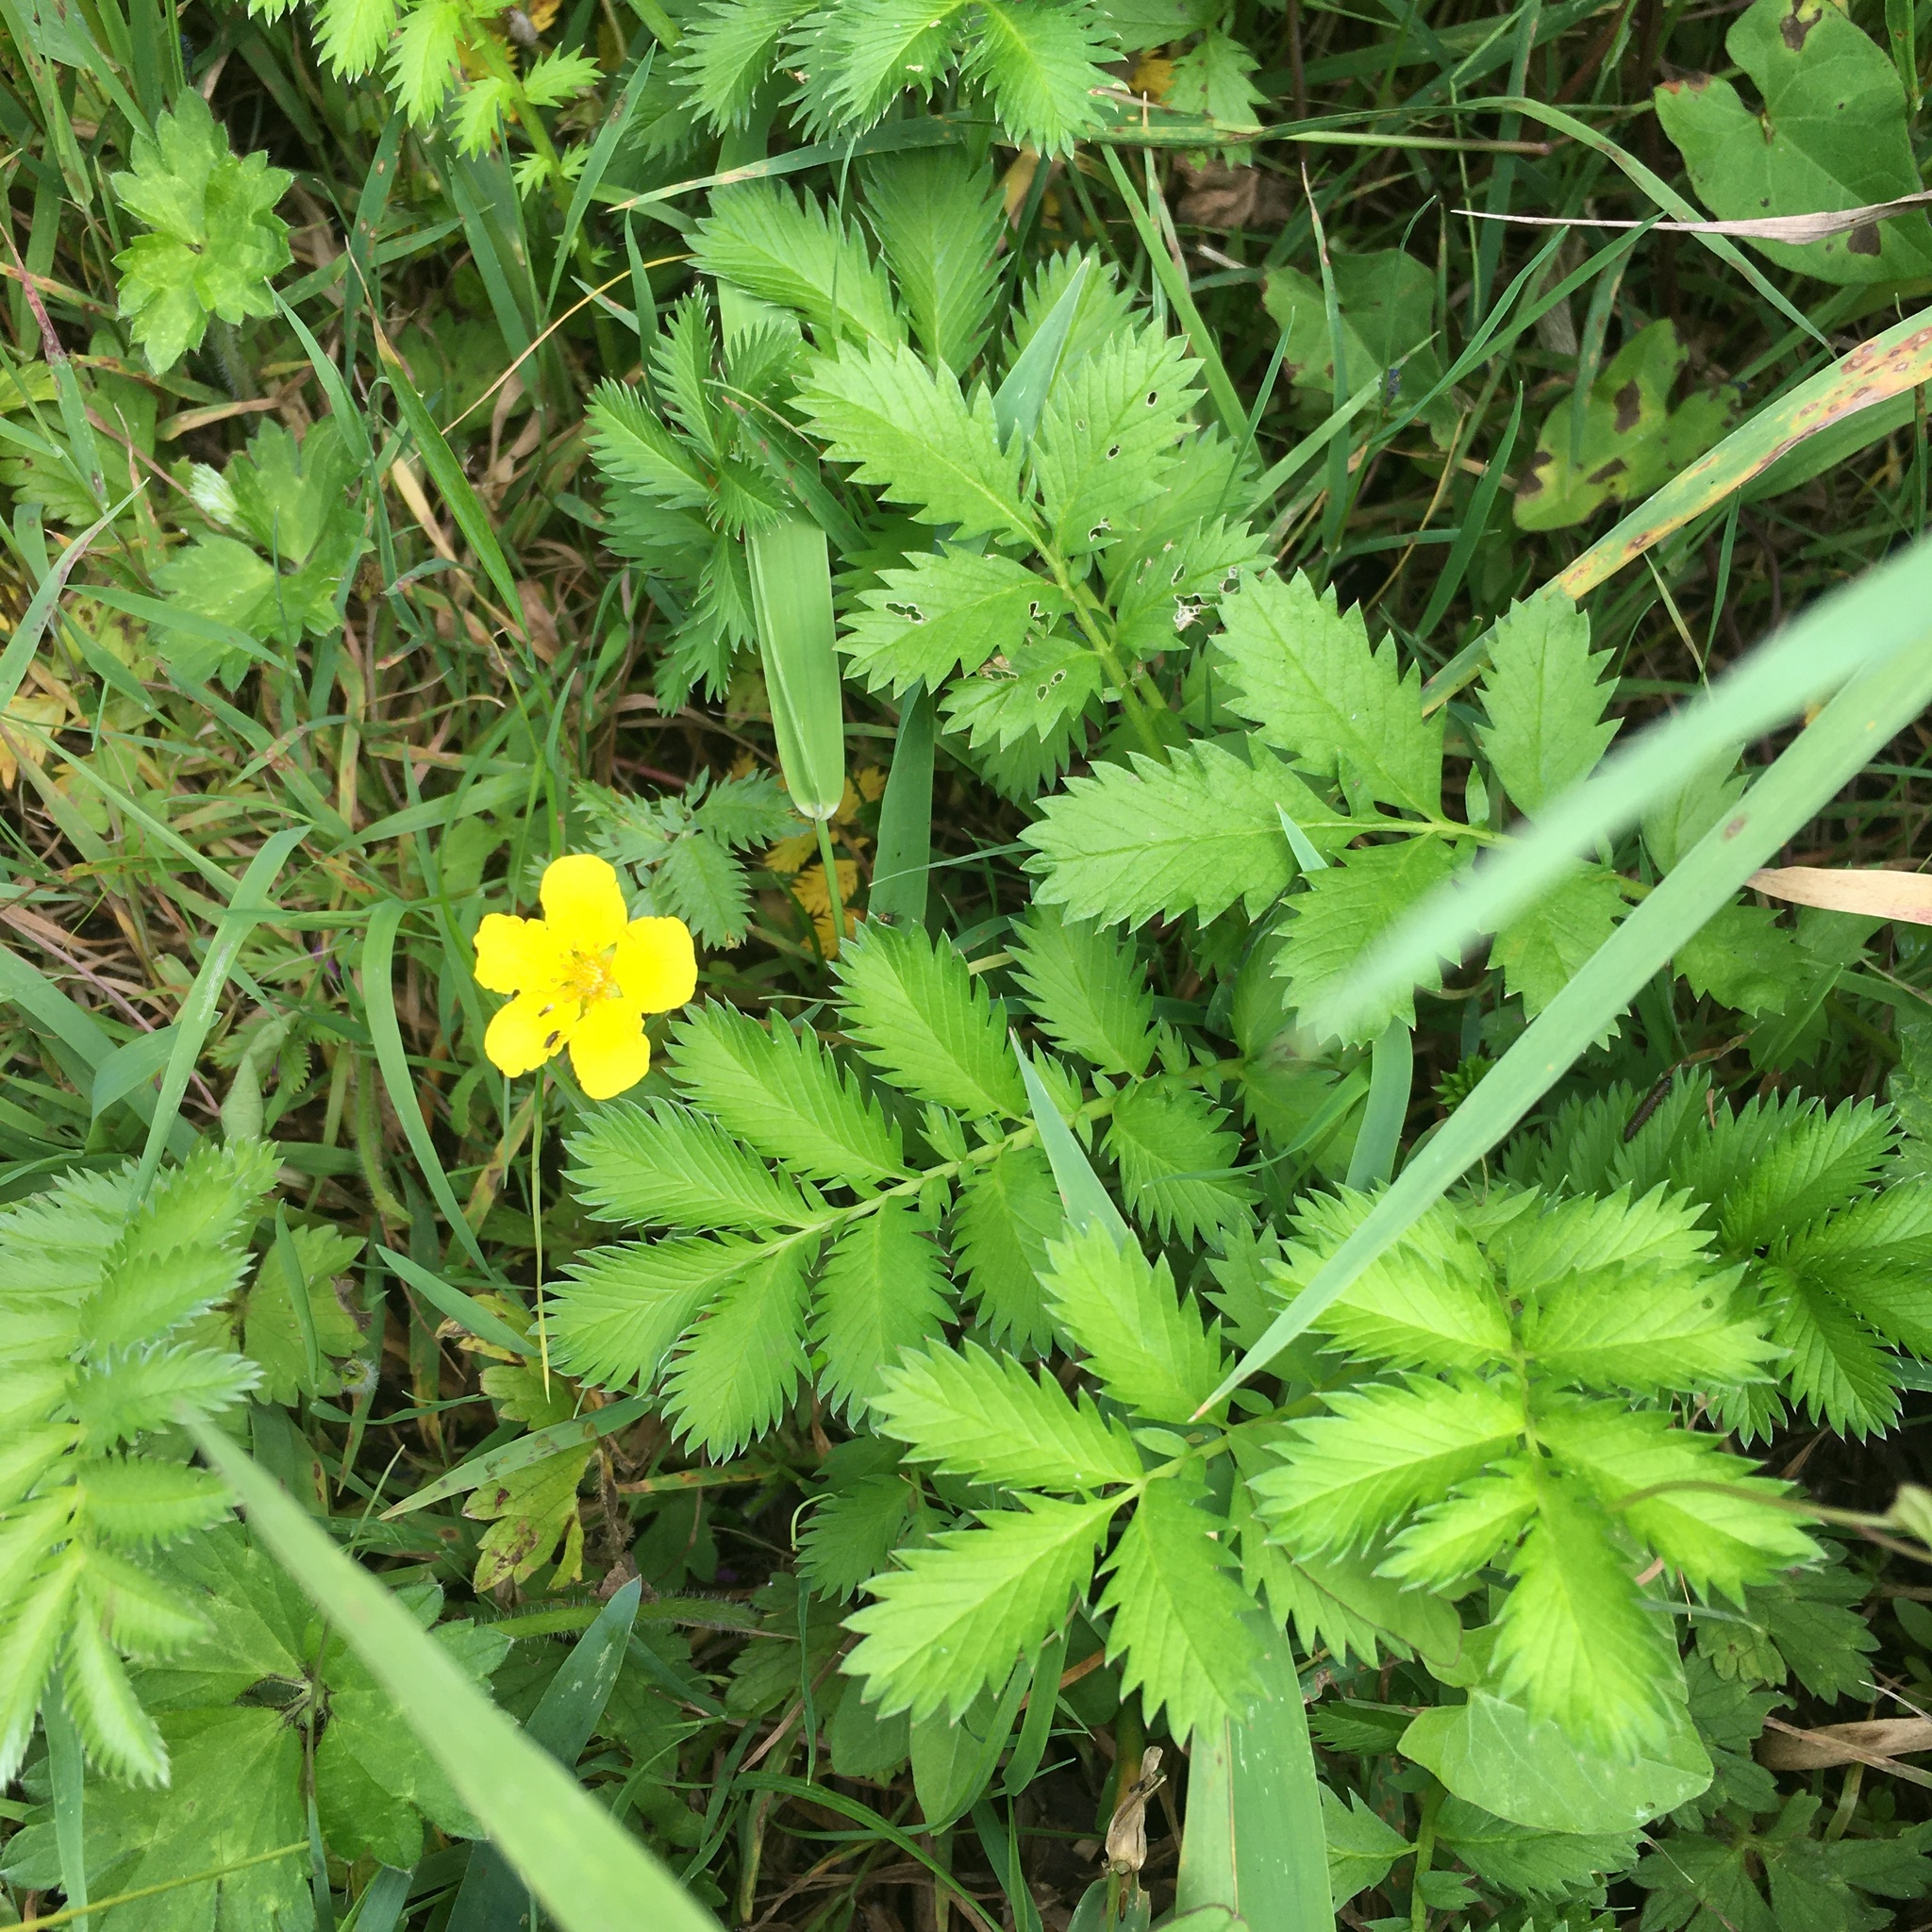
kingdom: Plantae
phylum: Tracheophyta
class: Magnoliopsida
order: Rosales
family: Rosaceae
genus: Argentina
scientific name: Argentina anserina
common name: Common silverweed
